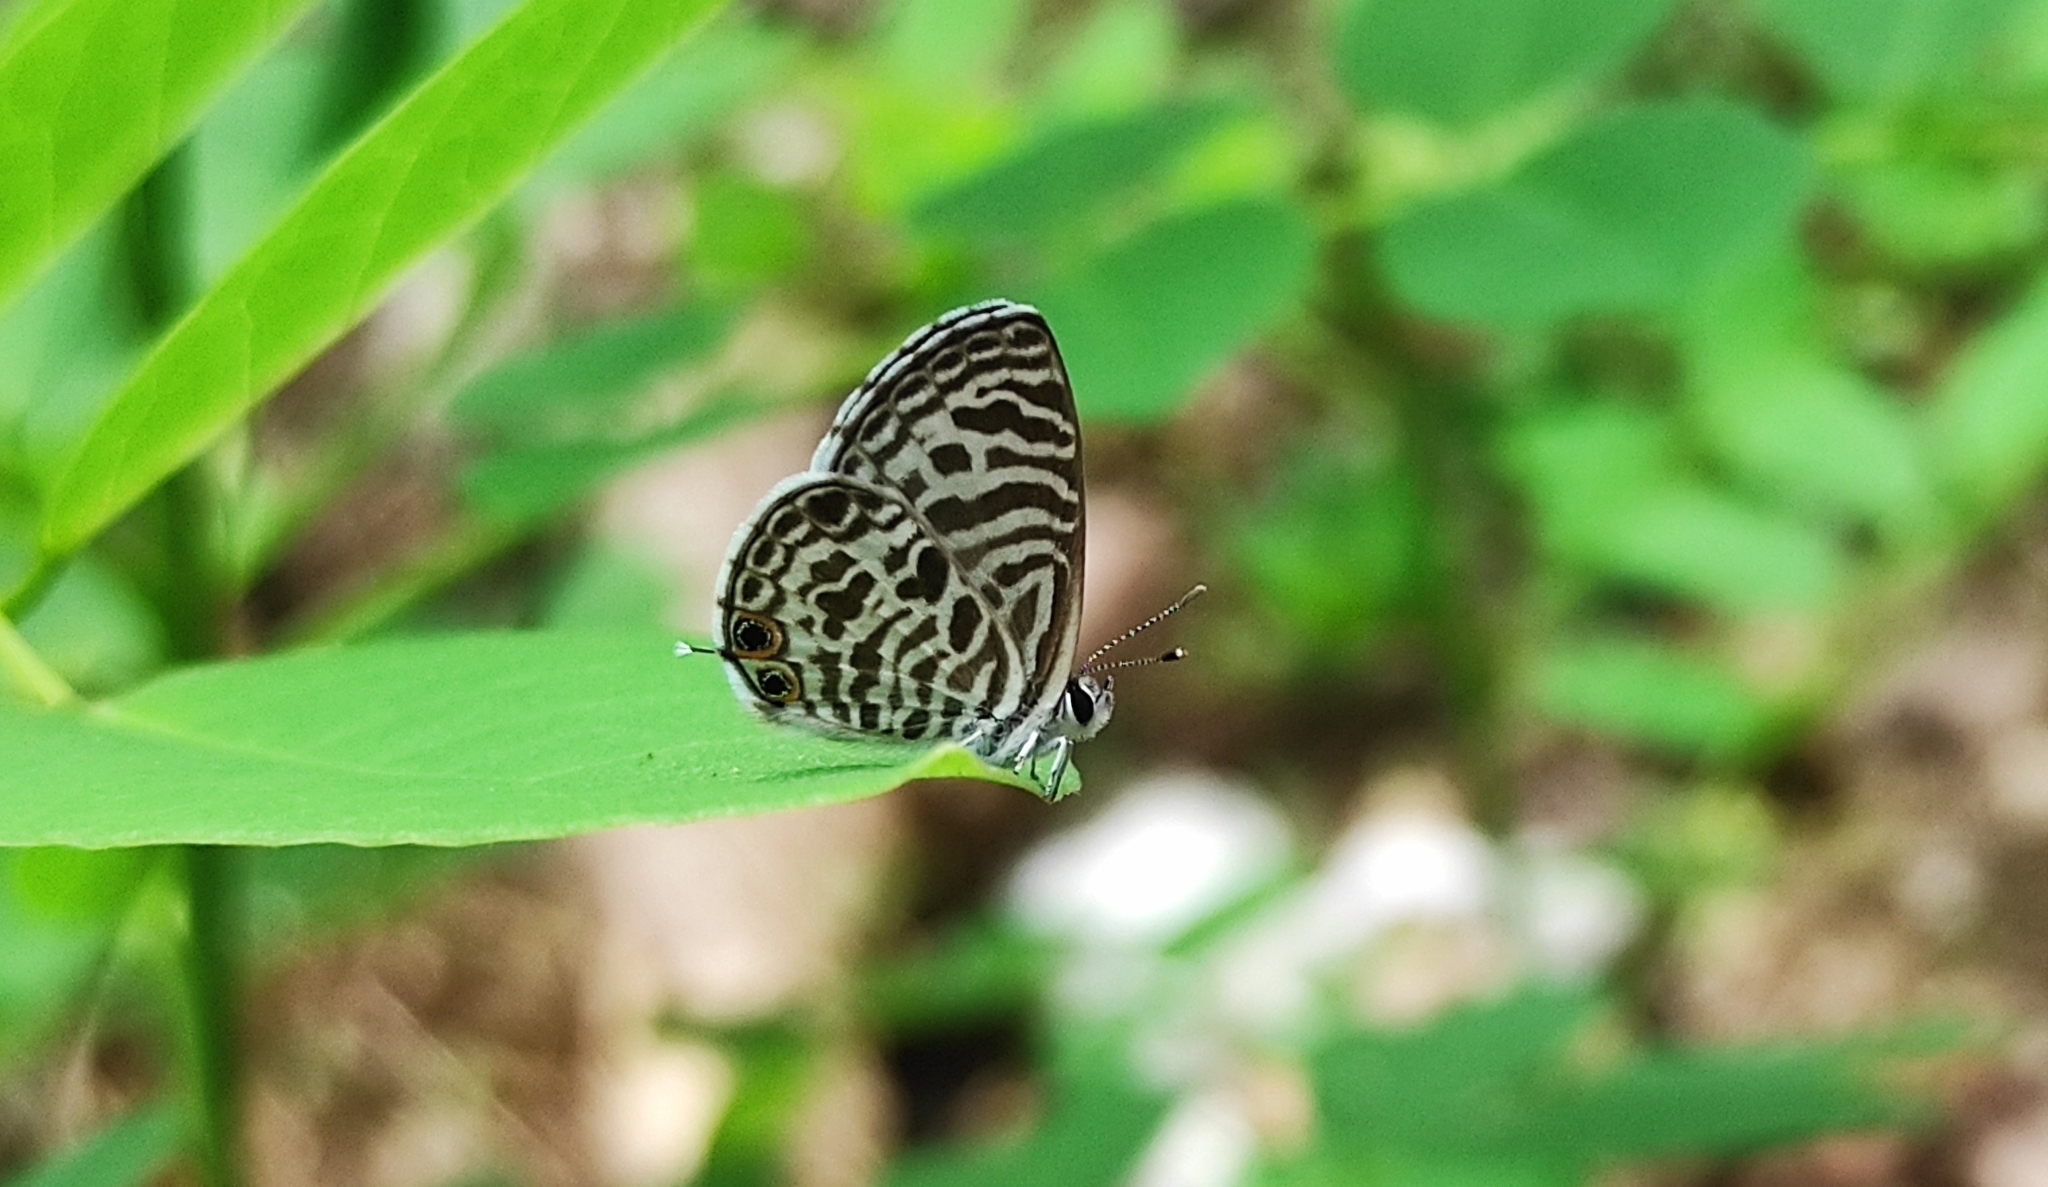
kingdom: Animalia
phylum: Arthropoda
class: Insecta
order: Lepidoptera
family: Lycaenidae
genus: Leptotes
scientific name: Leptotes plinius
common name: Zebra blue
